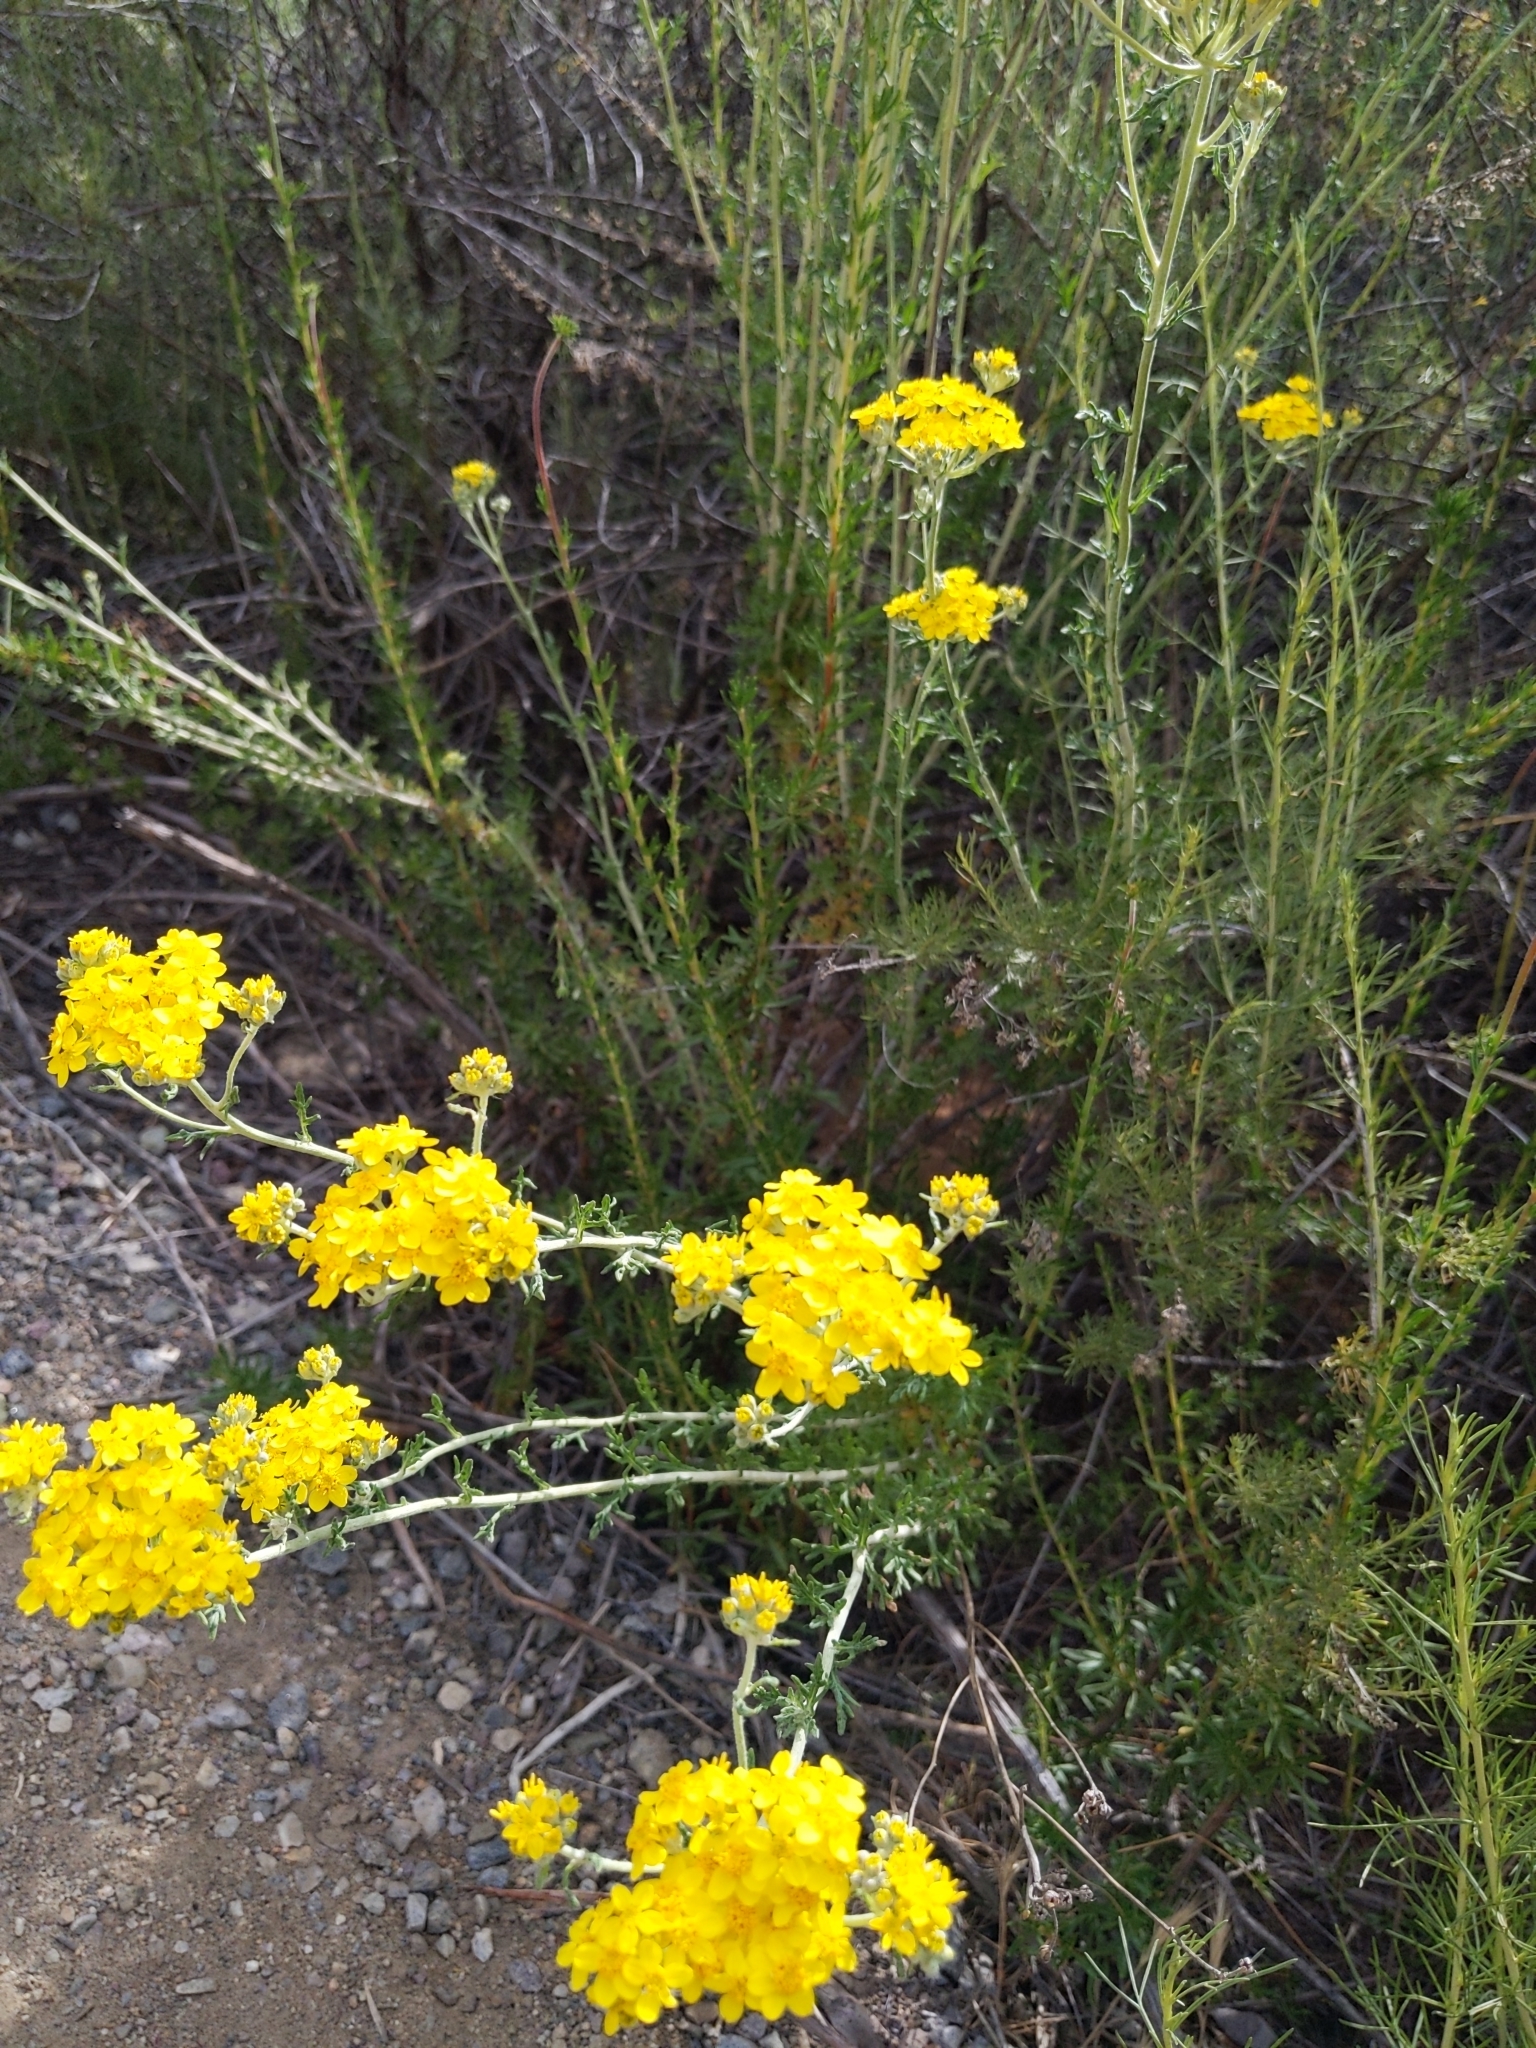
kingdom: Plantae
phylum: Tracheophyta
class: Magnoliopsida
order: Asterales
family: Asteraceae
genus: Eriophyllum
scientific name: Eriophyllum confertiflorum
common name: Golden-yarrow
